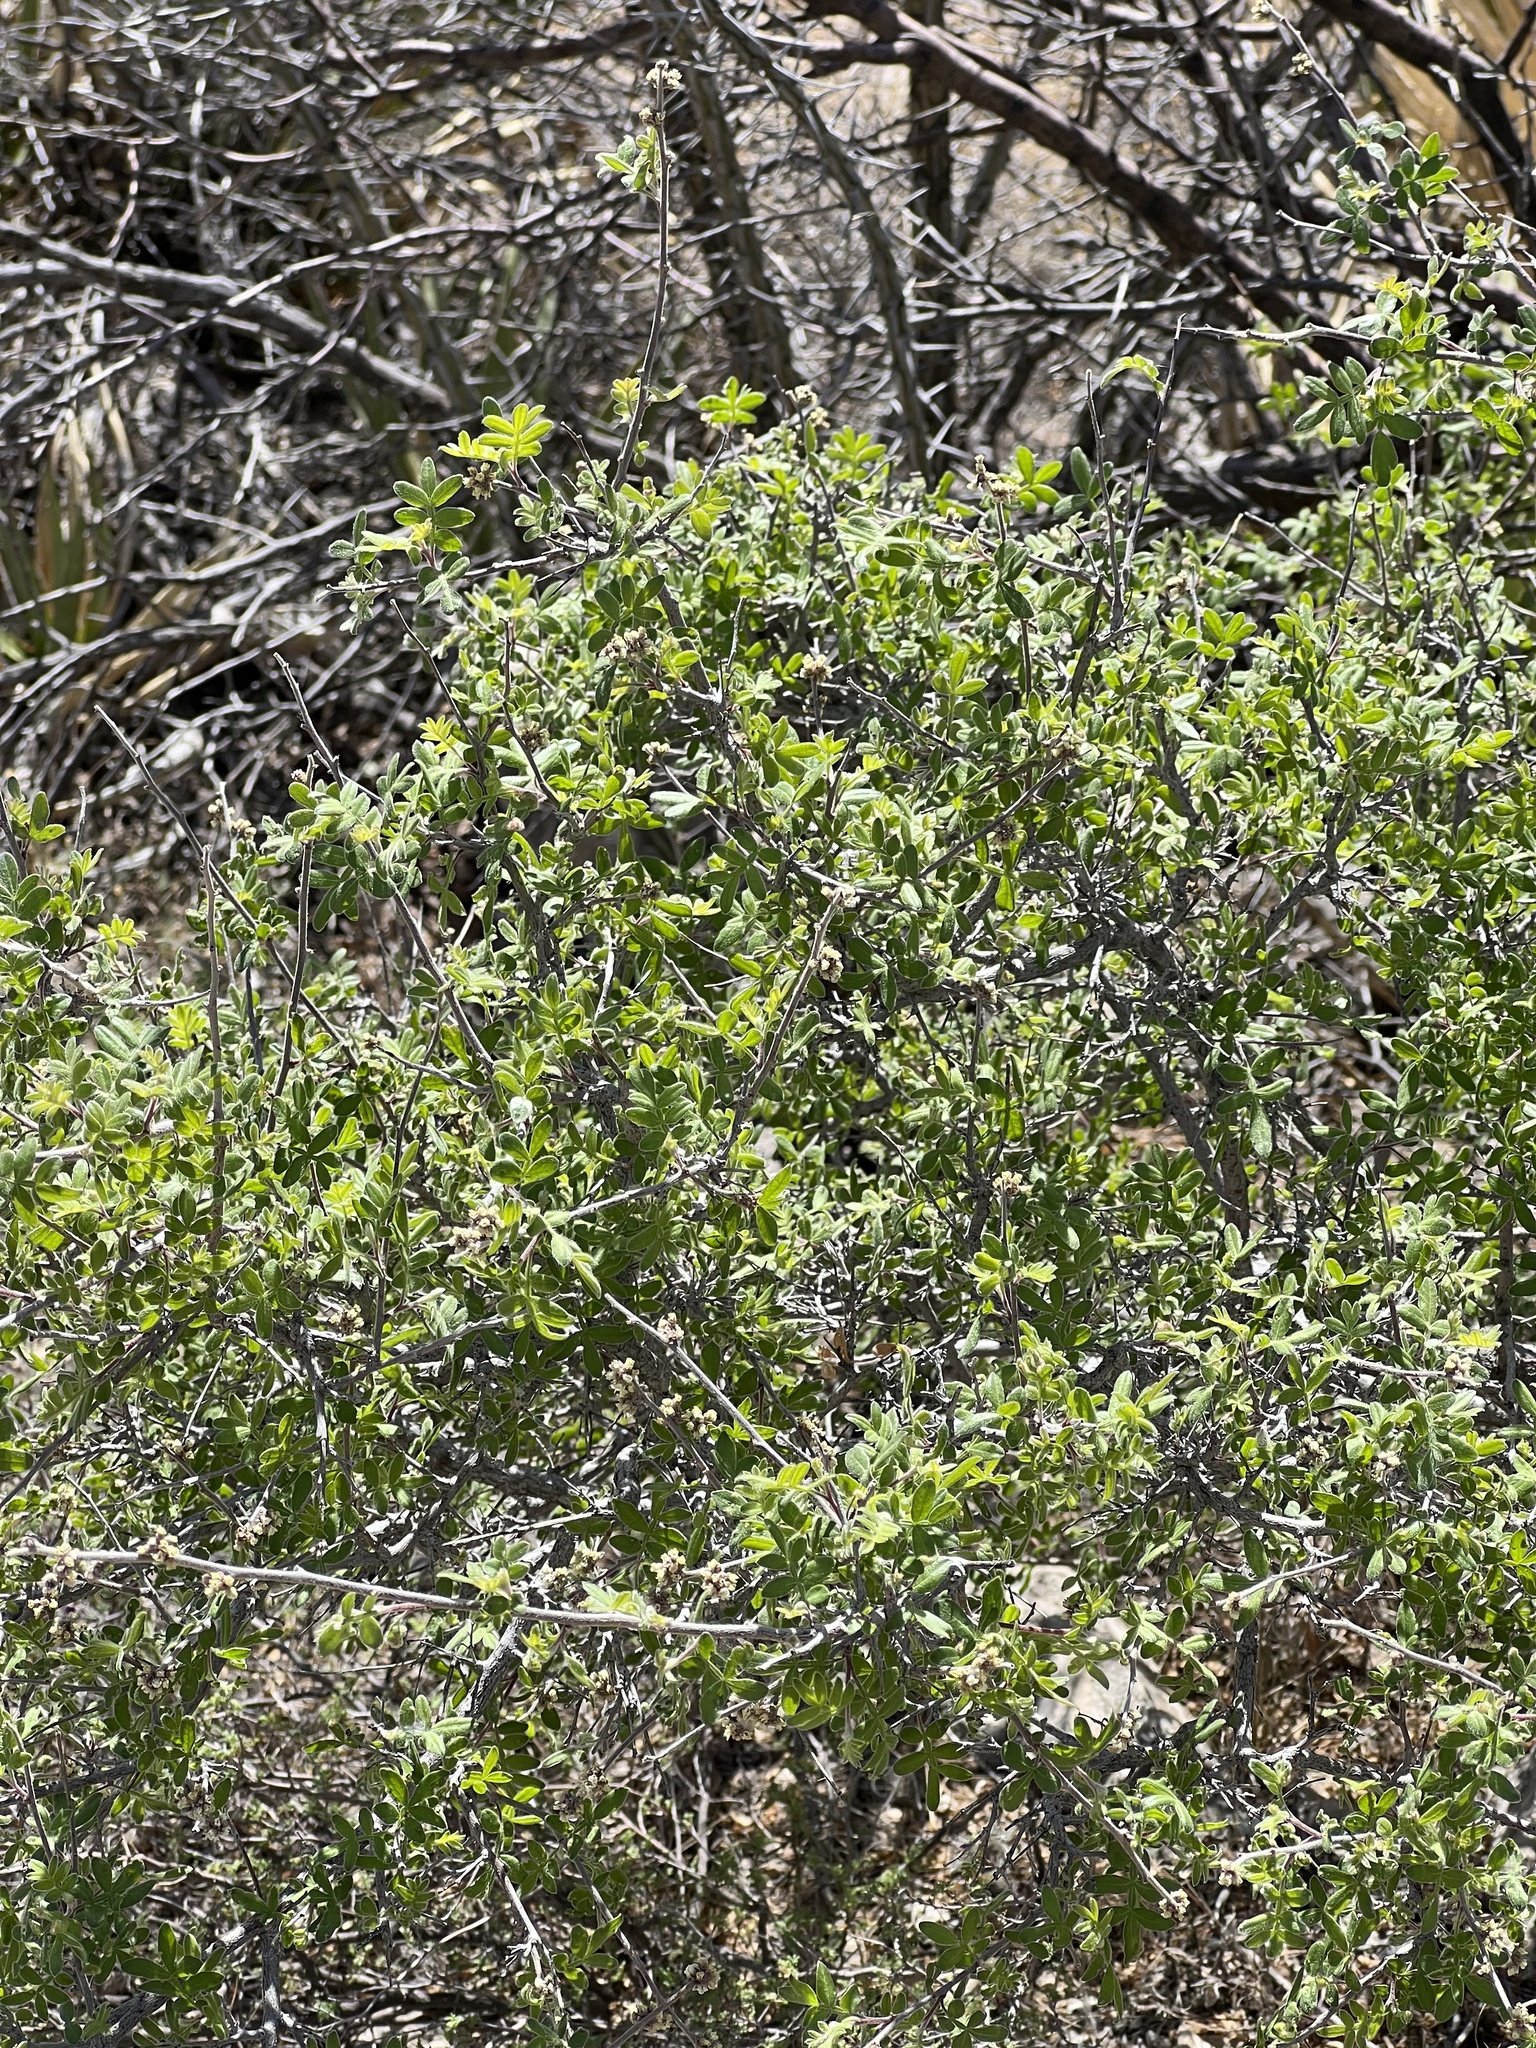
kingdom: Plantae
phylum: Tracheophyta
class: Magnoliopsida
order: Sapindales
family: Anacardiaceae
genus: Rhus
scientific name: Rhus microphylla
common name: Desert sumac
